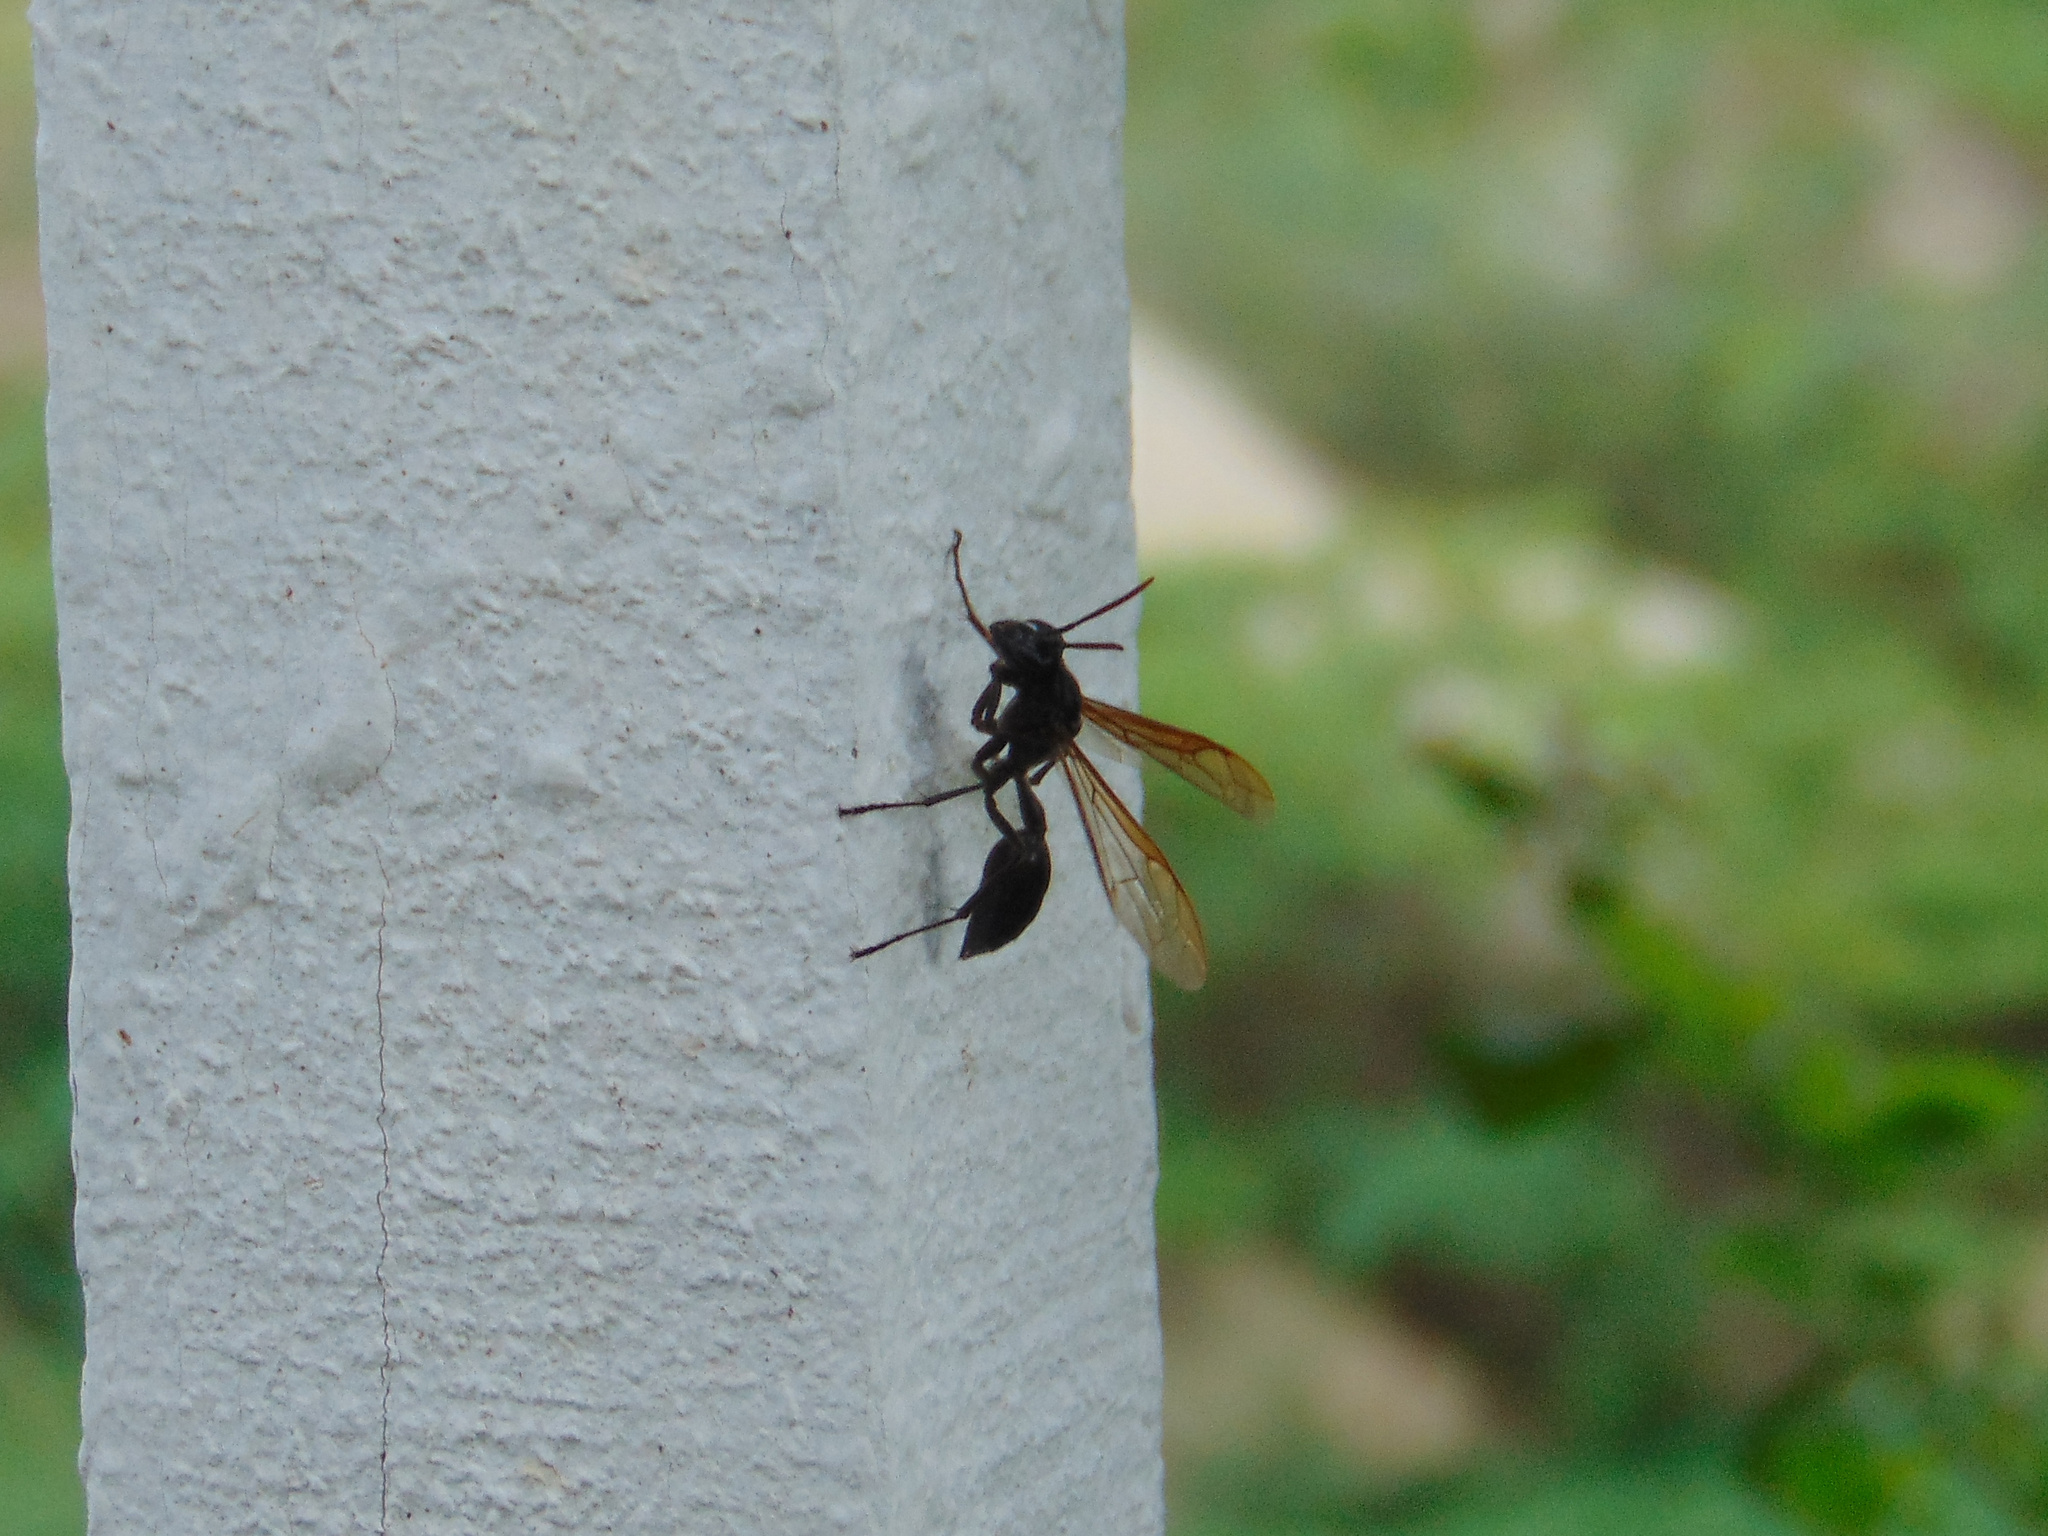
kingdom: Animalia
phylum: Arthropoda
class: Insecta
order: Hymenoptera
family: Vespidae
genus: Agelaia
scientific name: Agelaia angulata
